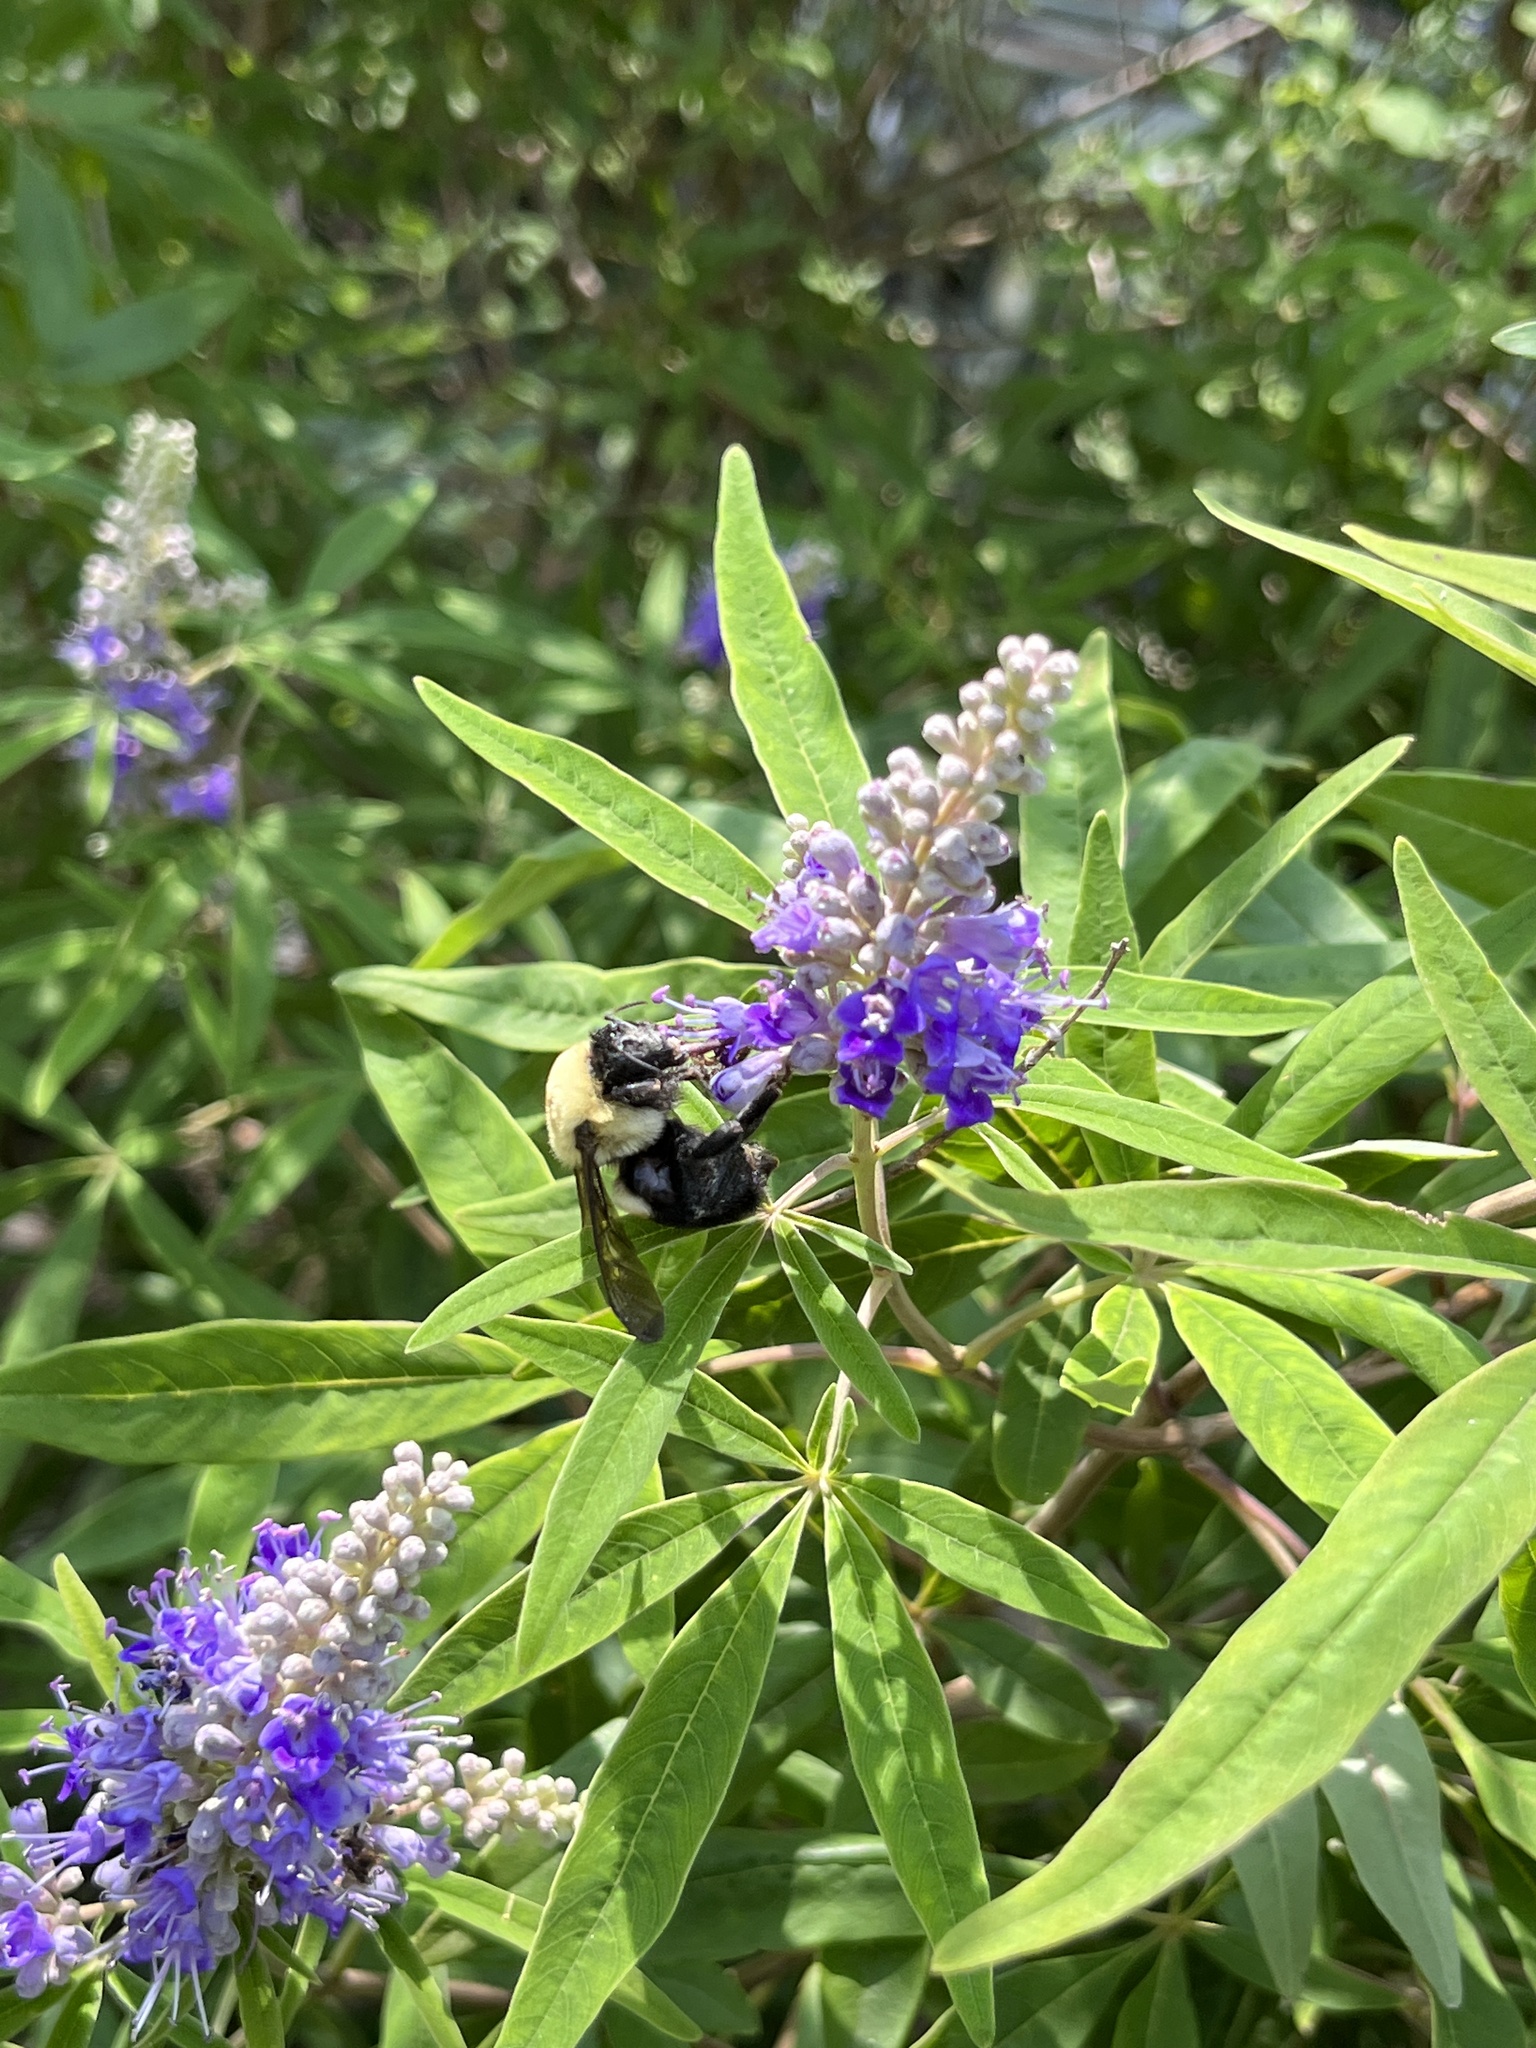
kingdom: Animalia
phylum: Arthropoda
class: Insecta
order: Hymenoptera
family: Apidae
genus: Bombus
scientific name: Bombus griseocollis
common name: Brown-belted bumble bee
